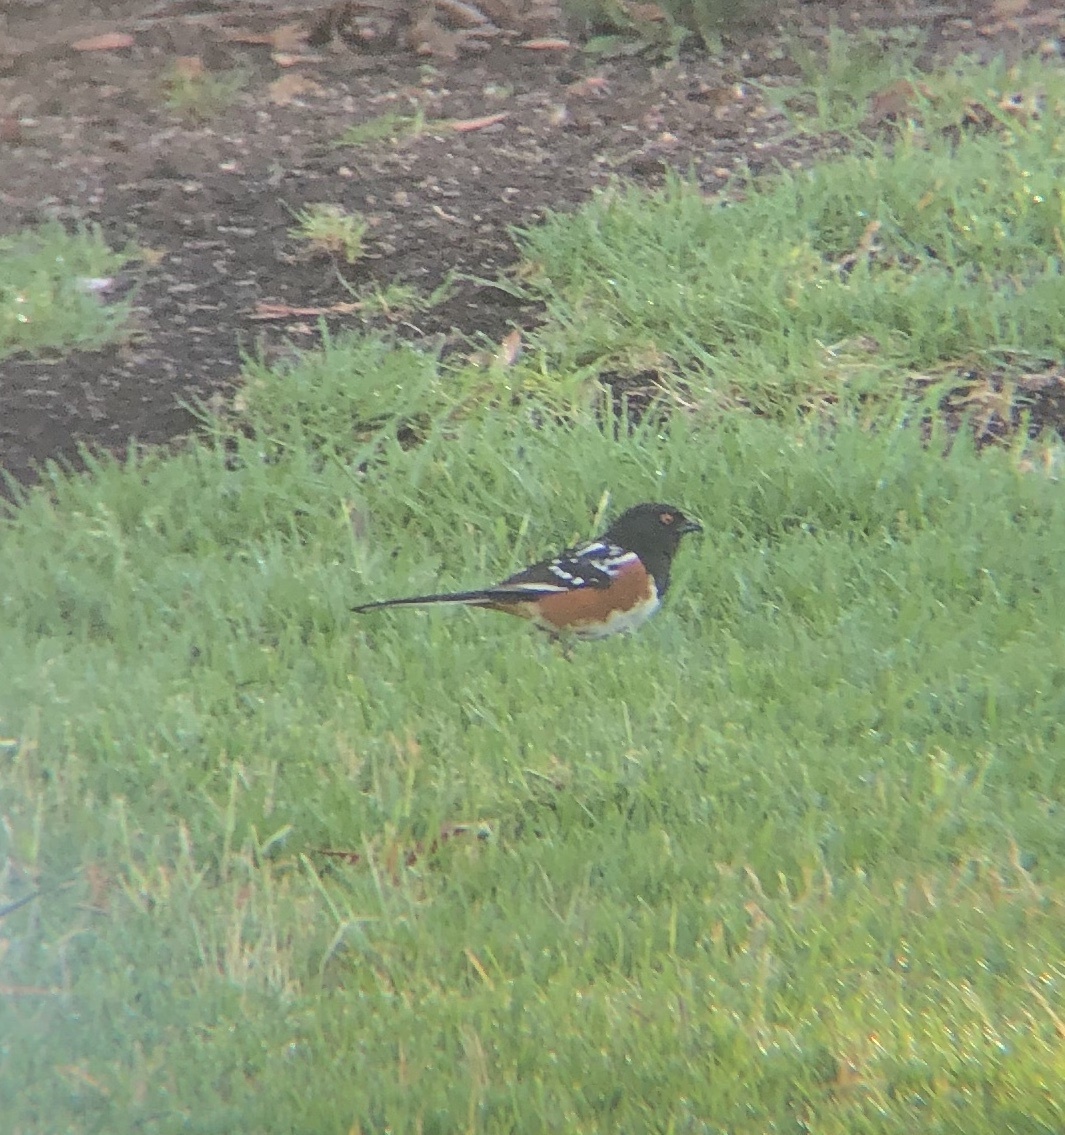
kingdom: Animalia
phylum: Chordata
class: Aves
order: Passeriformes
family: Passerellidae
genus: Pipilo
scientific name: Pipilo maculatus
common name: Spotted towhee
